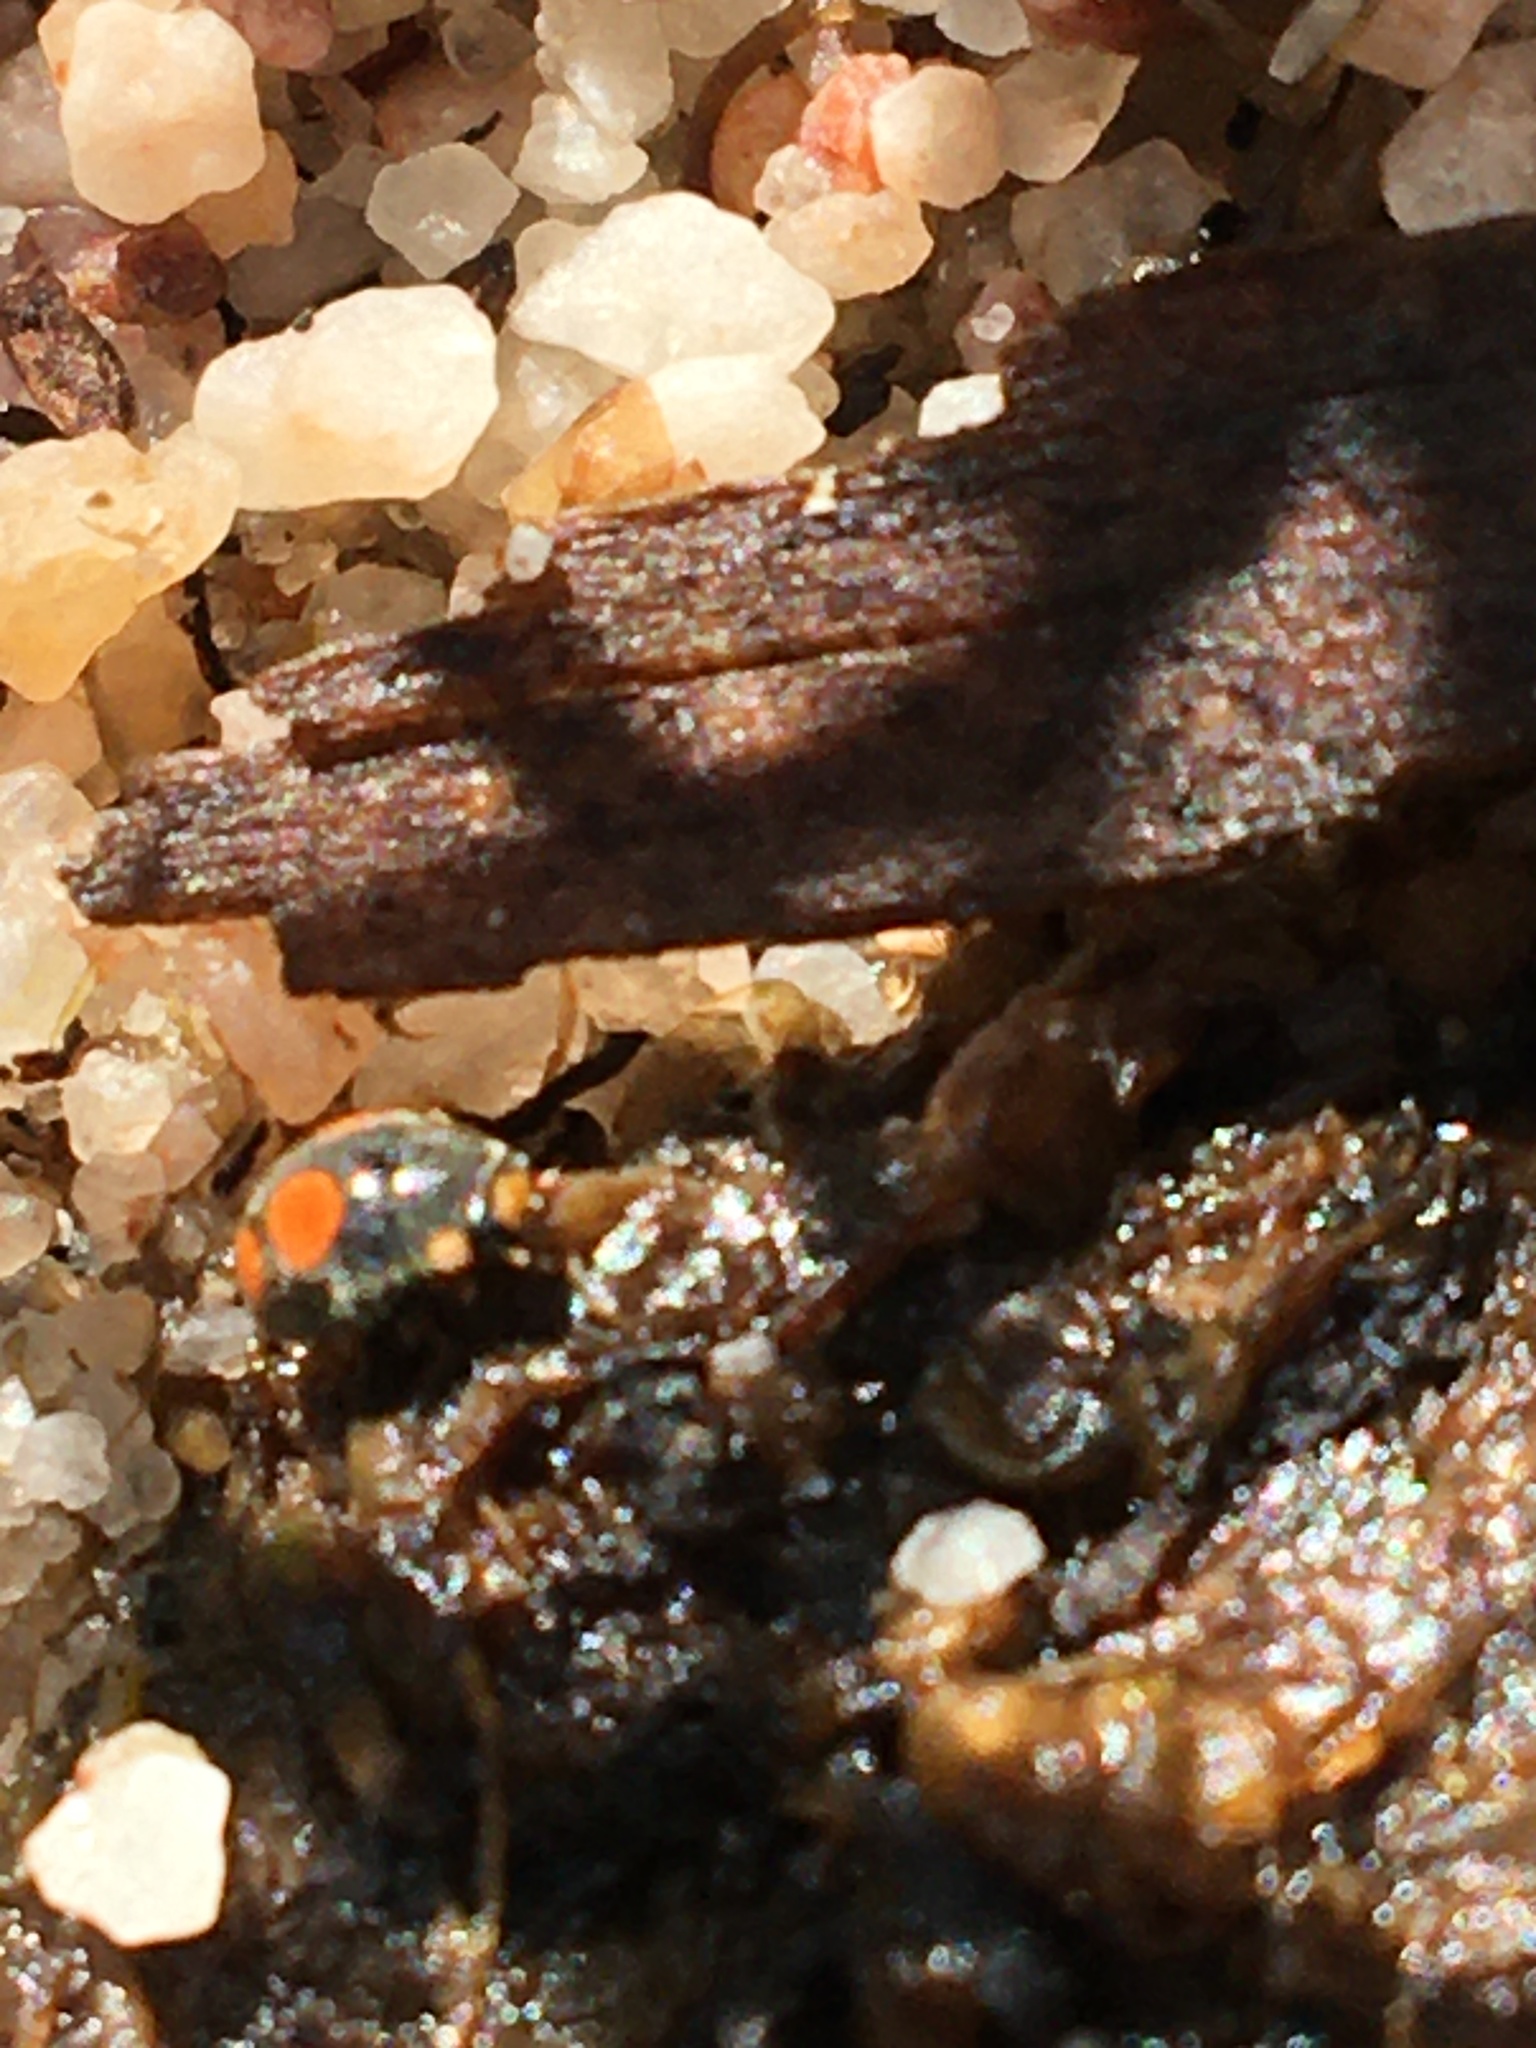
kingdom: Animalia
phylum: Arthropoda
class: Insecta
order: Coleoptera
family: Coccinellidae
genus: Platynaspis
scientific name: Platynaspis
